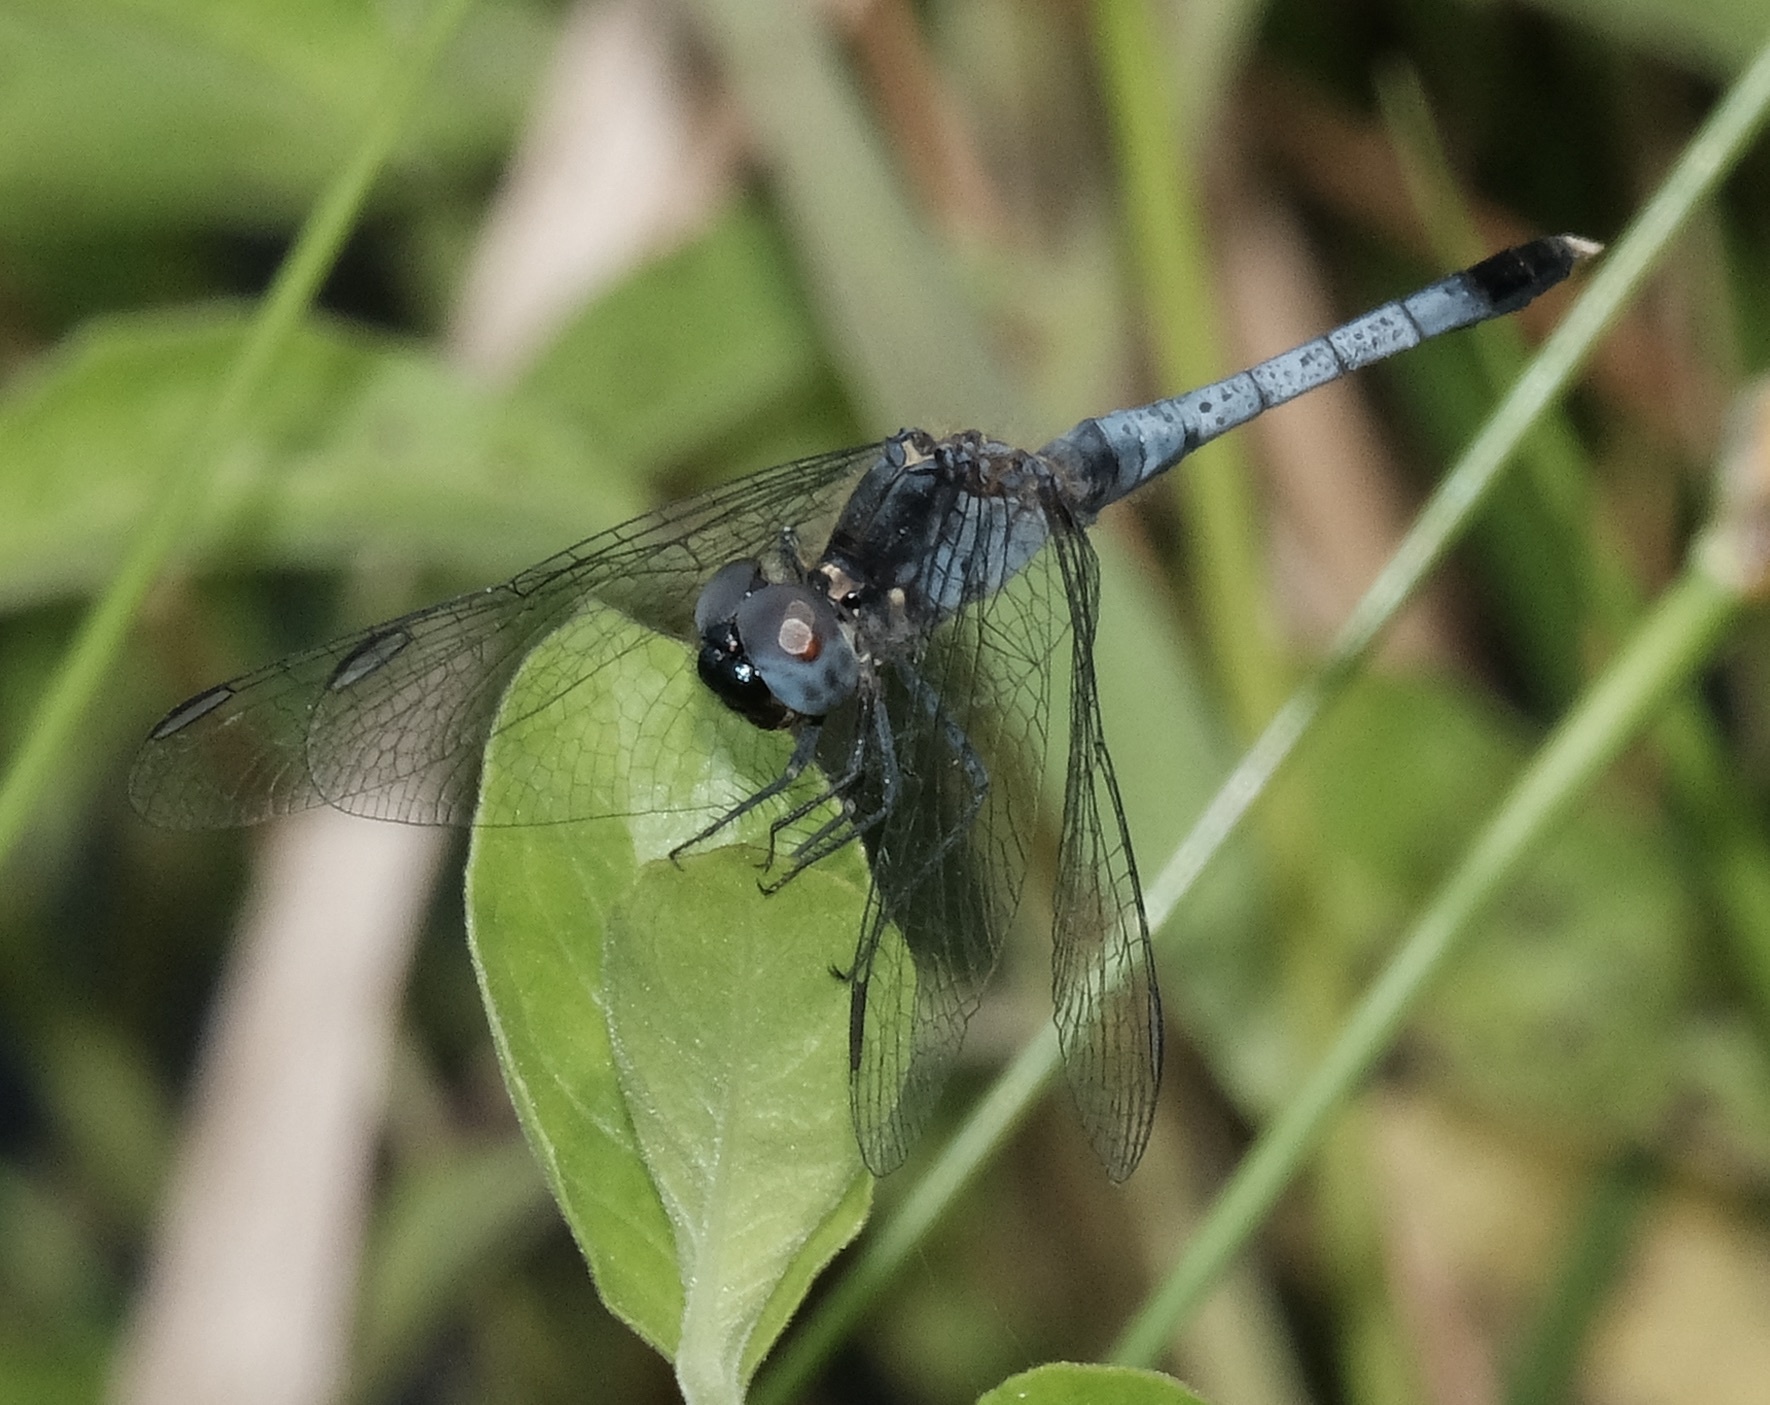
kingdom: Animalia
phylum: Arthropoda
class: Insecta
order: Odonata
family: Libellulidae
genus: Erythrodiplax
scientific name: Erythrodiplax minuscula
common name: Little blue dragonlet
